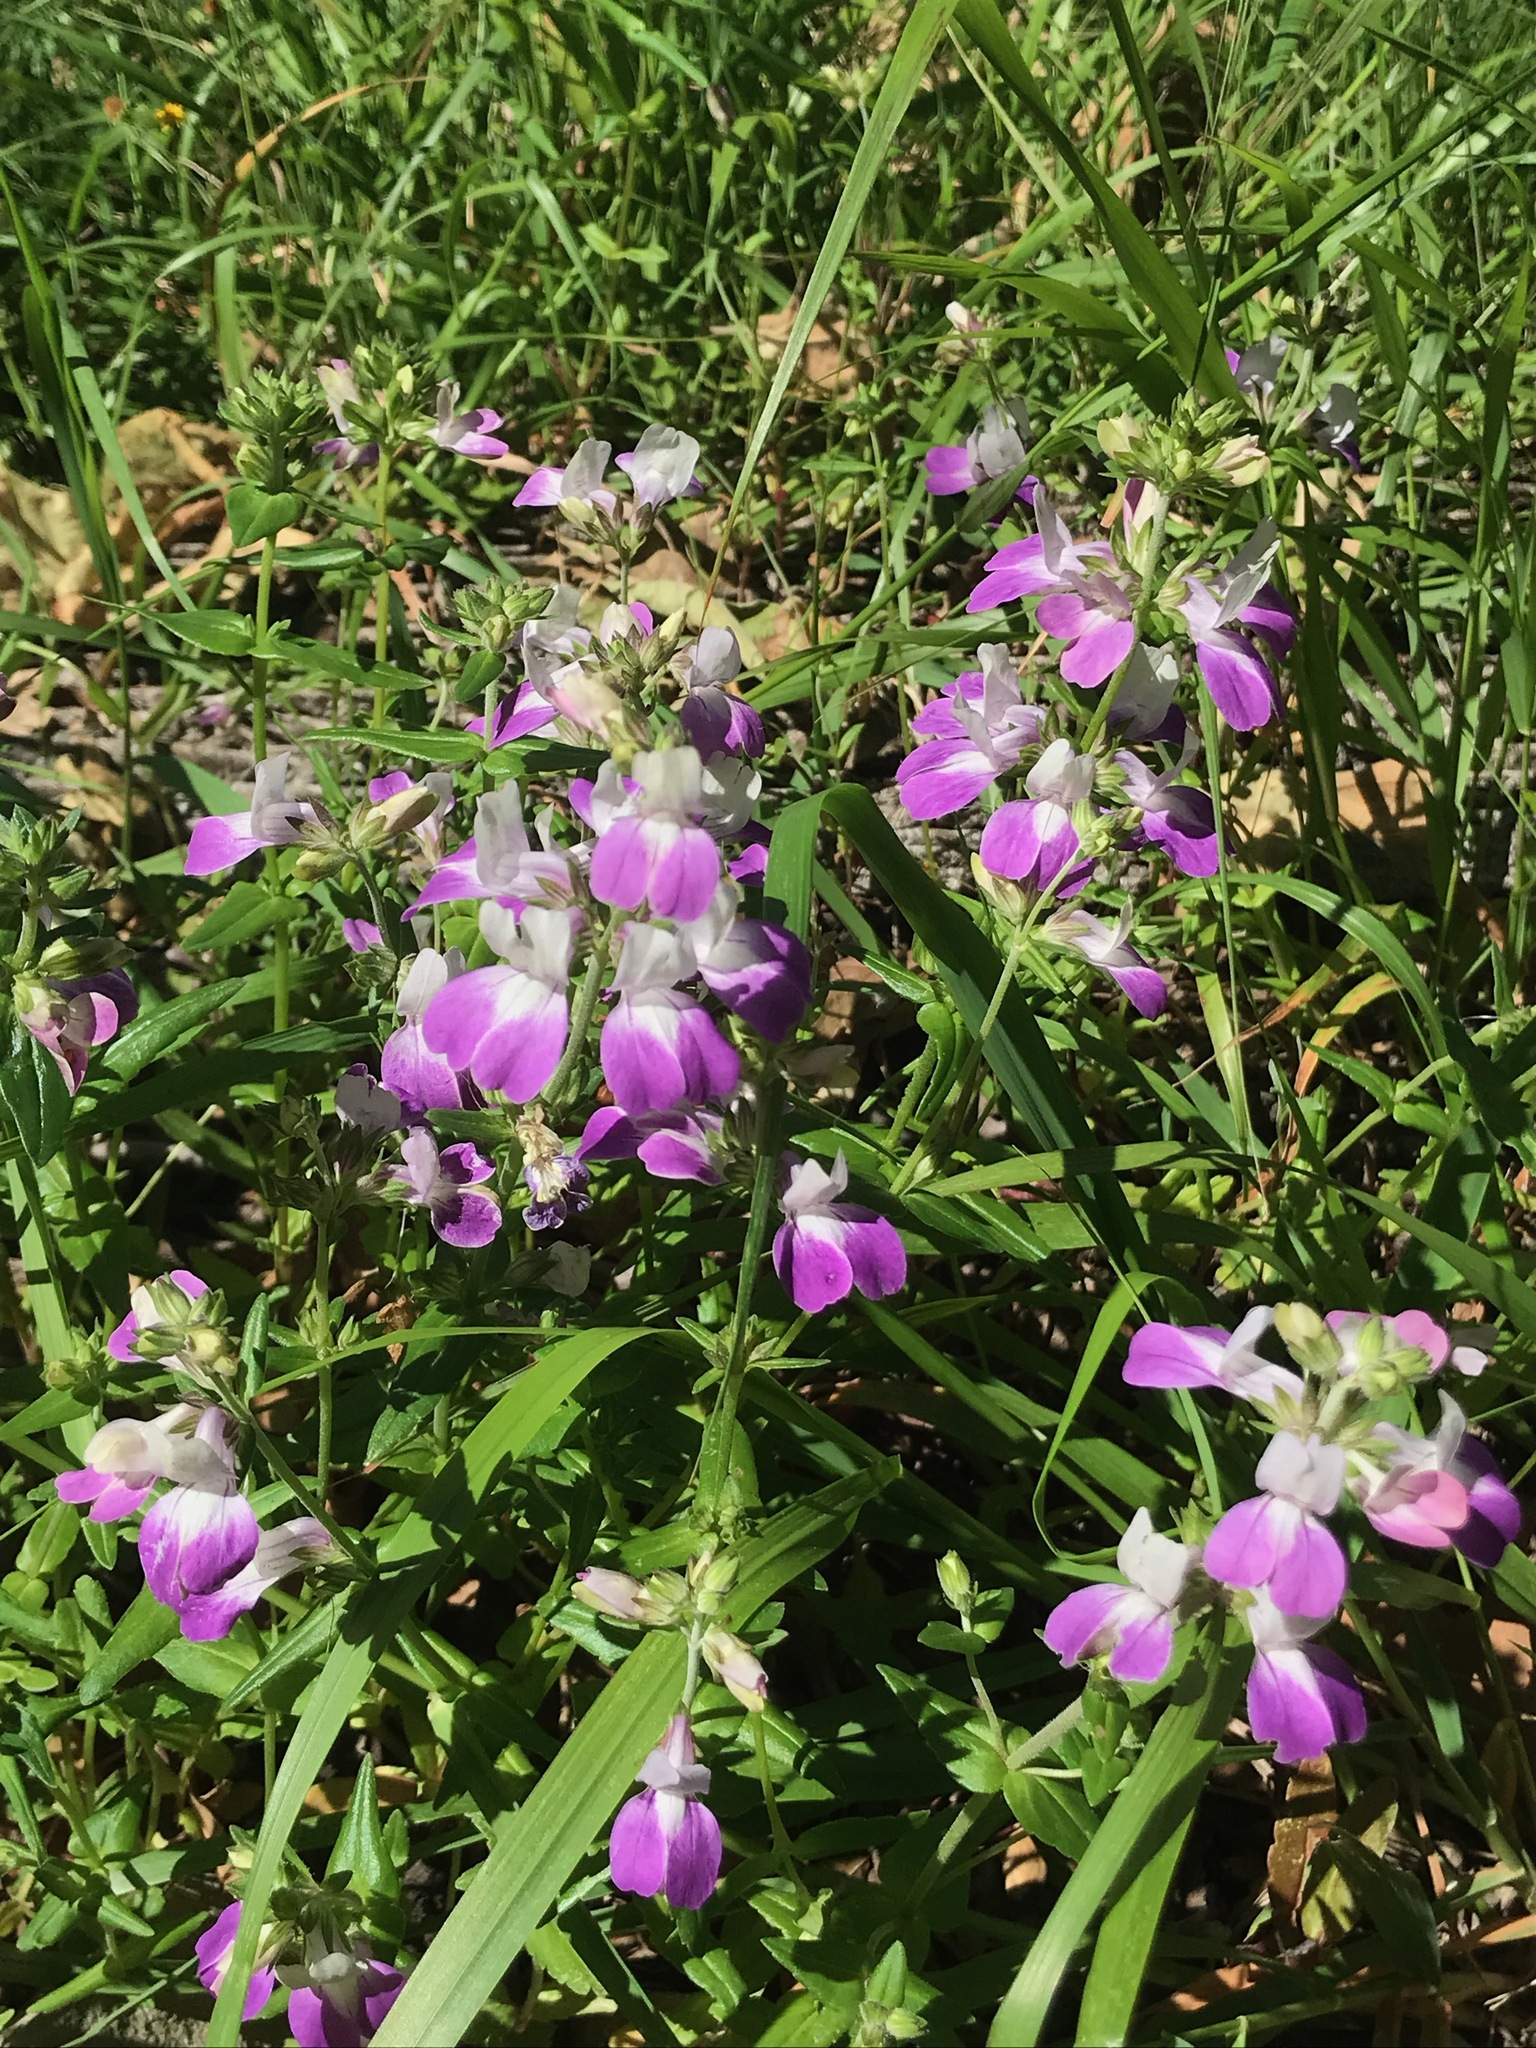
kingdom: Plantae
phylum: Tracheophyta
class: Magnoliopsida
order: Lamiales
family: Plantaginaceae
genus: Collinsia
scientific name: Collinsia heterophylla
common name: Chinese-houses
